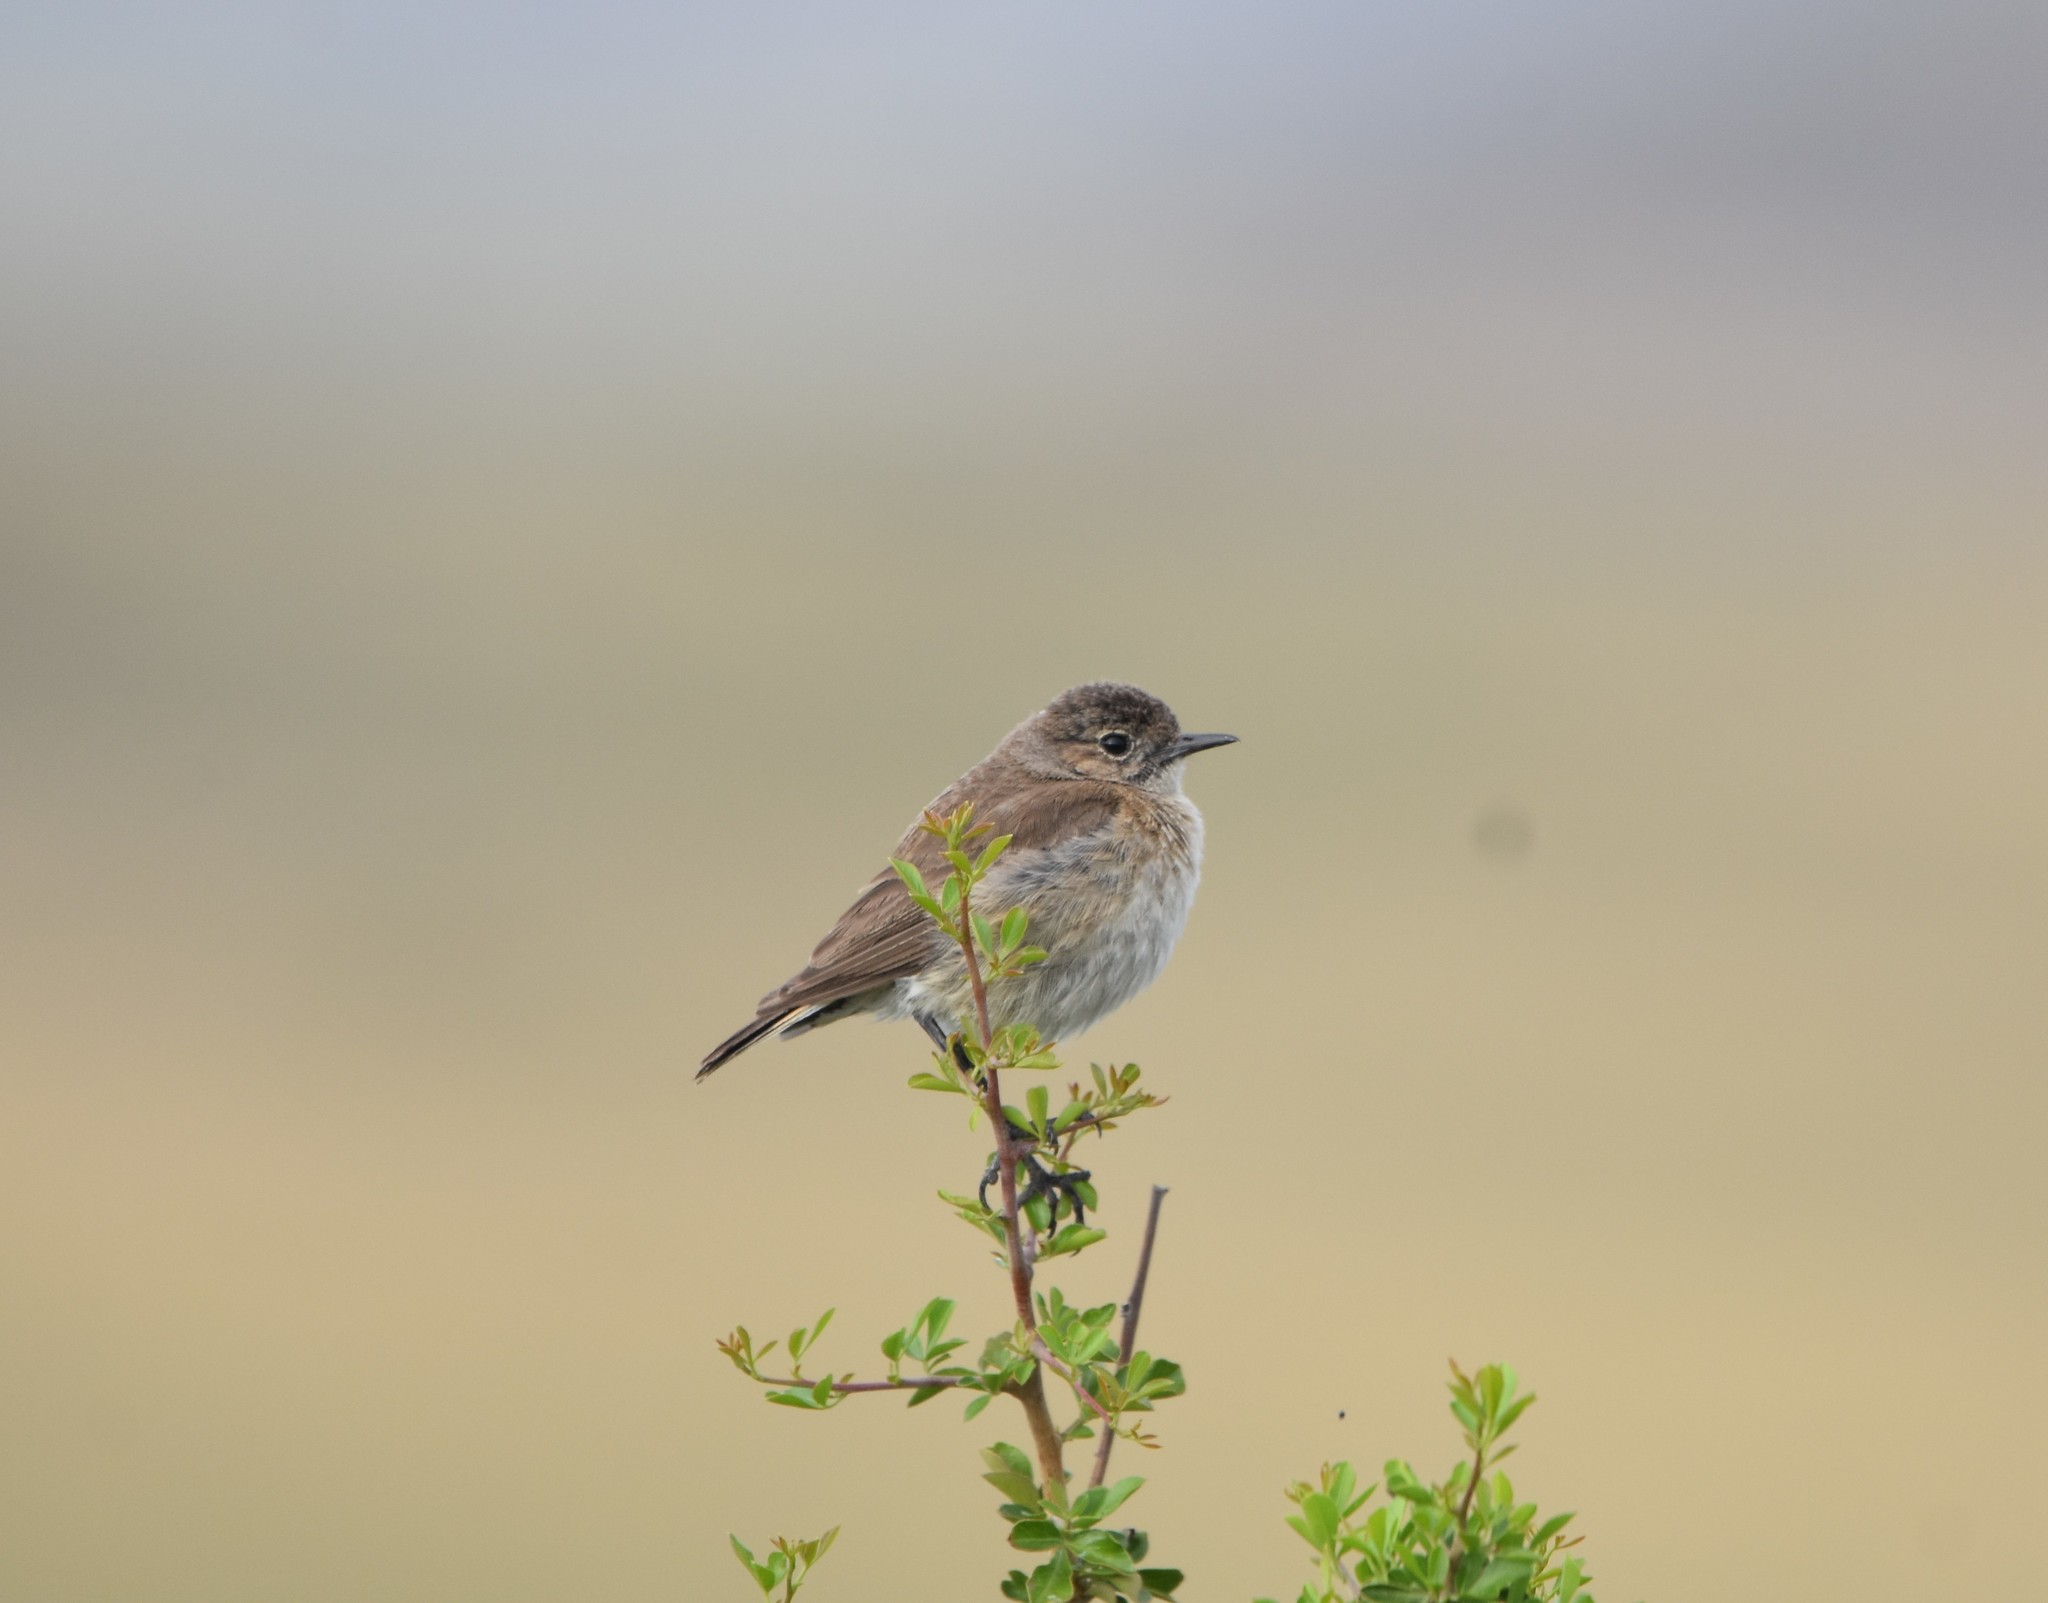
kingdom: Animalia
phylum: Chordata
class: Aves
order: Passeriformes
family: Muscicapidae
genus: Emarginata
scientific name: Emarginata sinuata
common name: Sickle-winged chat
